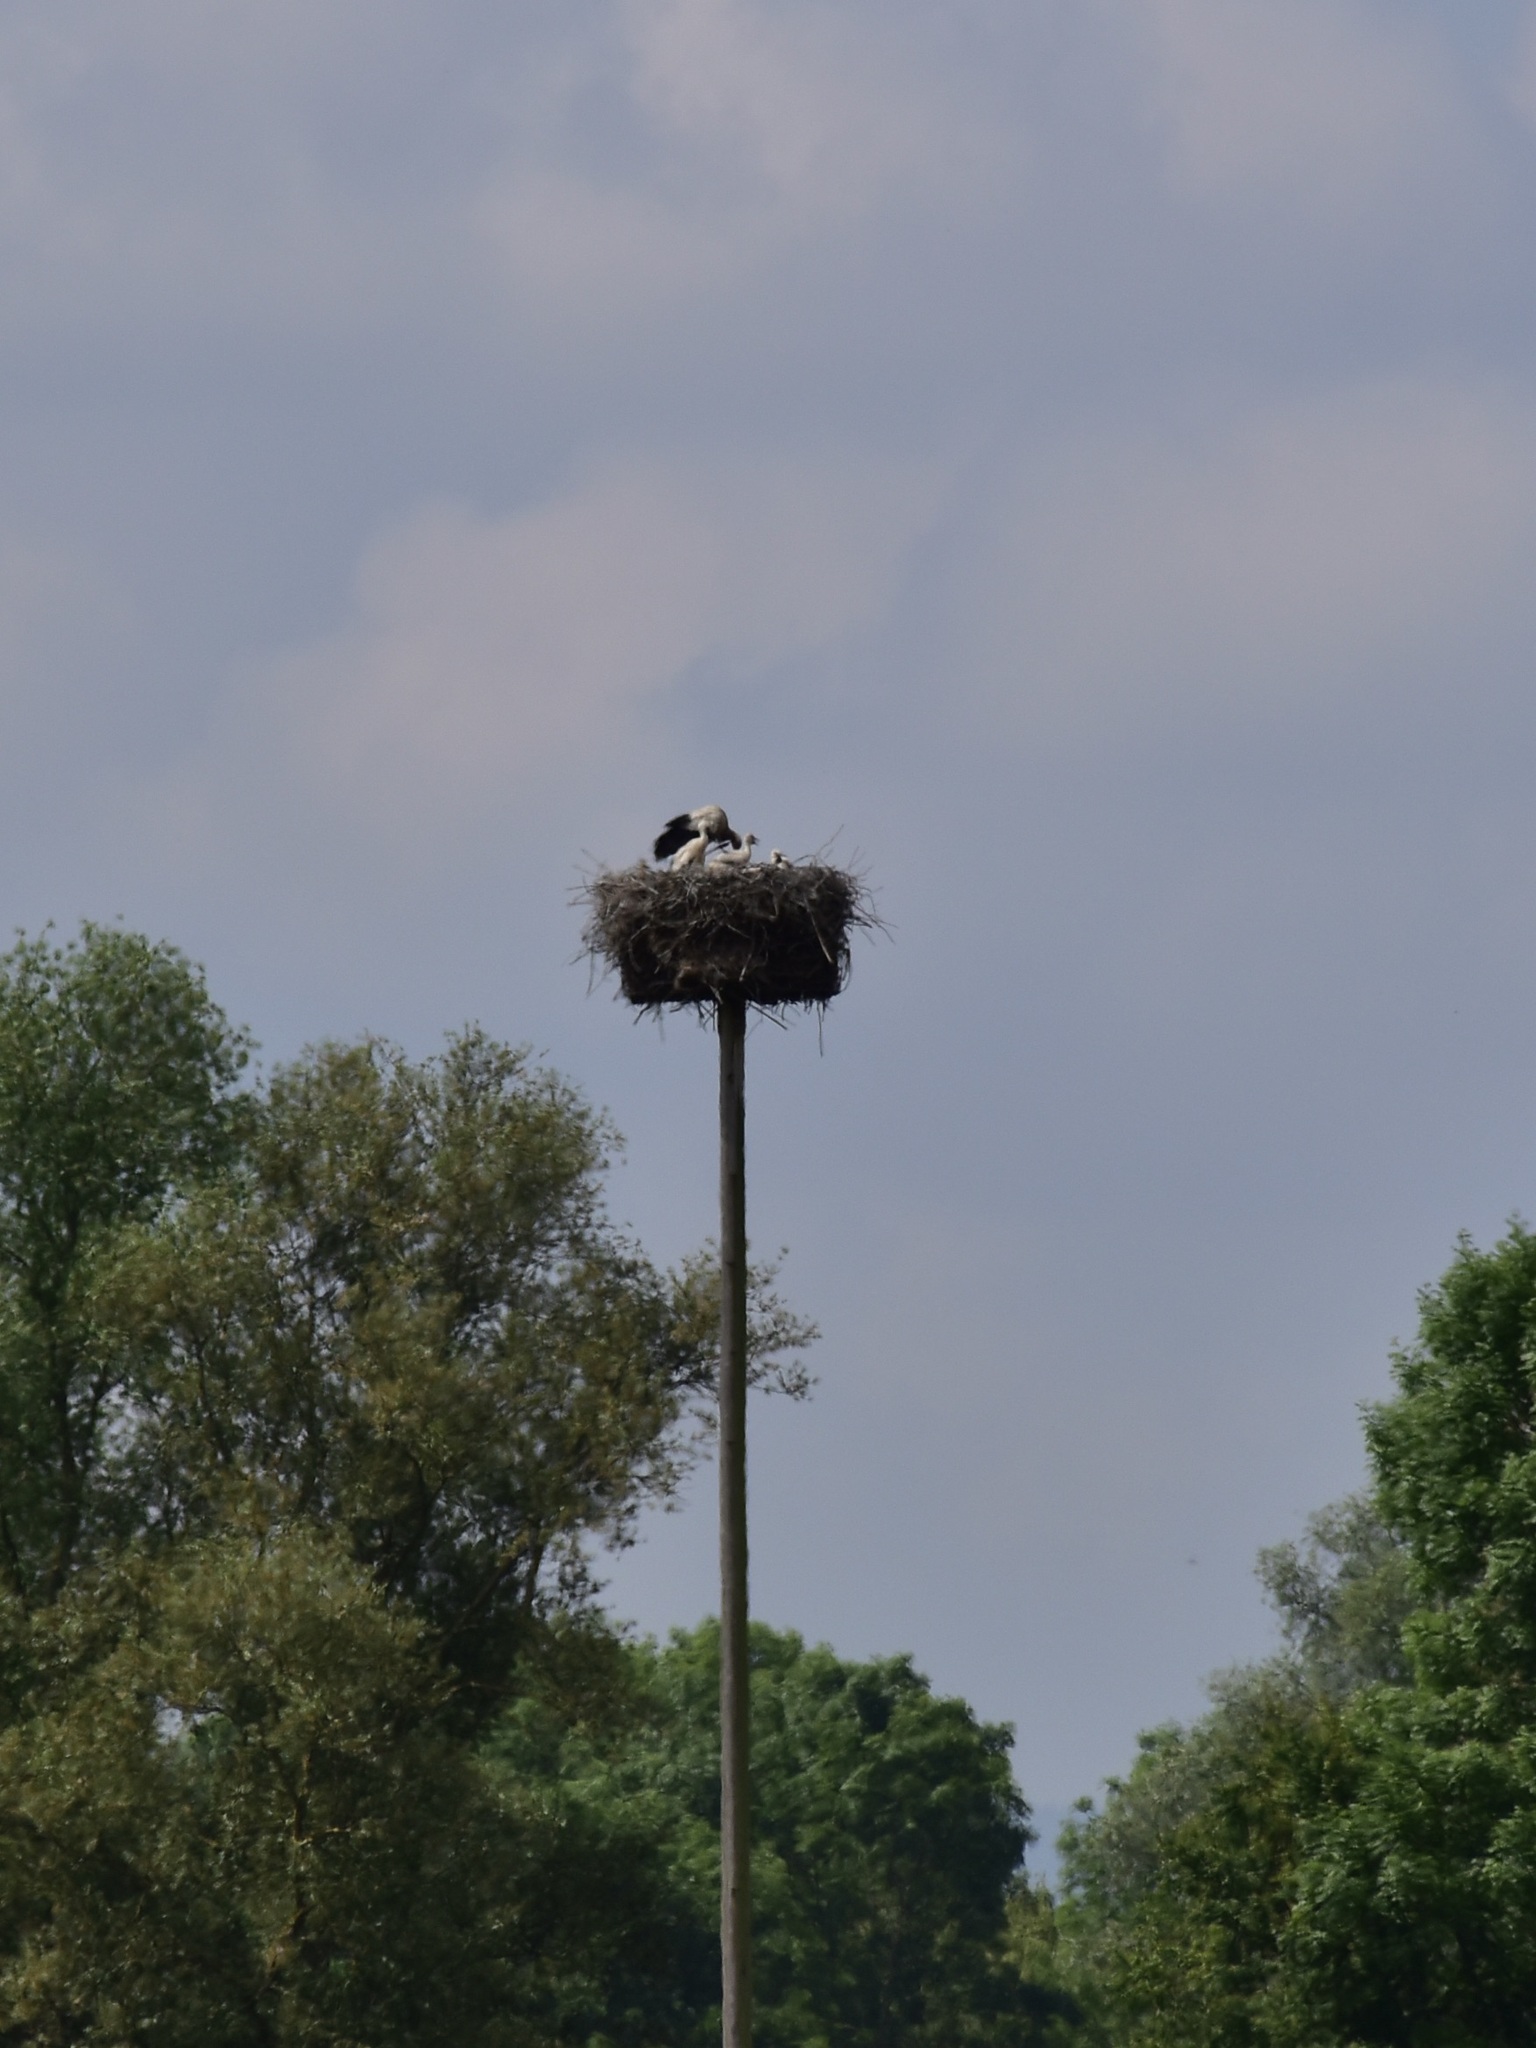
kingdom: Animalia
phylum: Chordata
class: Aves
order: Ciconiiformes
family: Ciconiidae
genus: Ciconia
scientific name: Ciconia ciconia
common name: White stork
